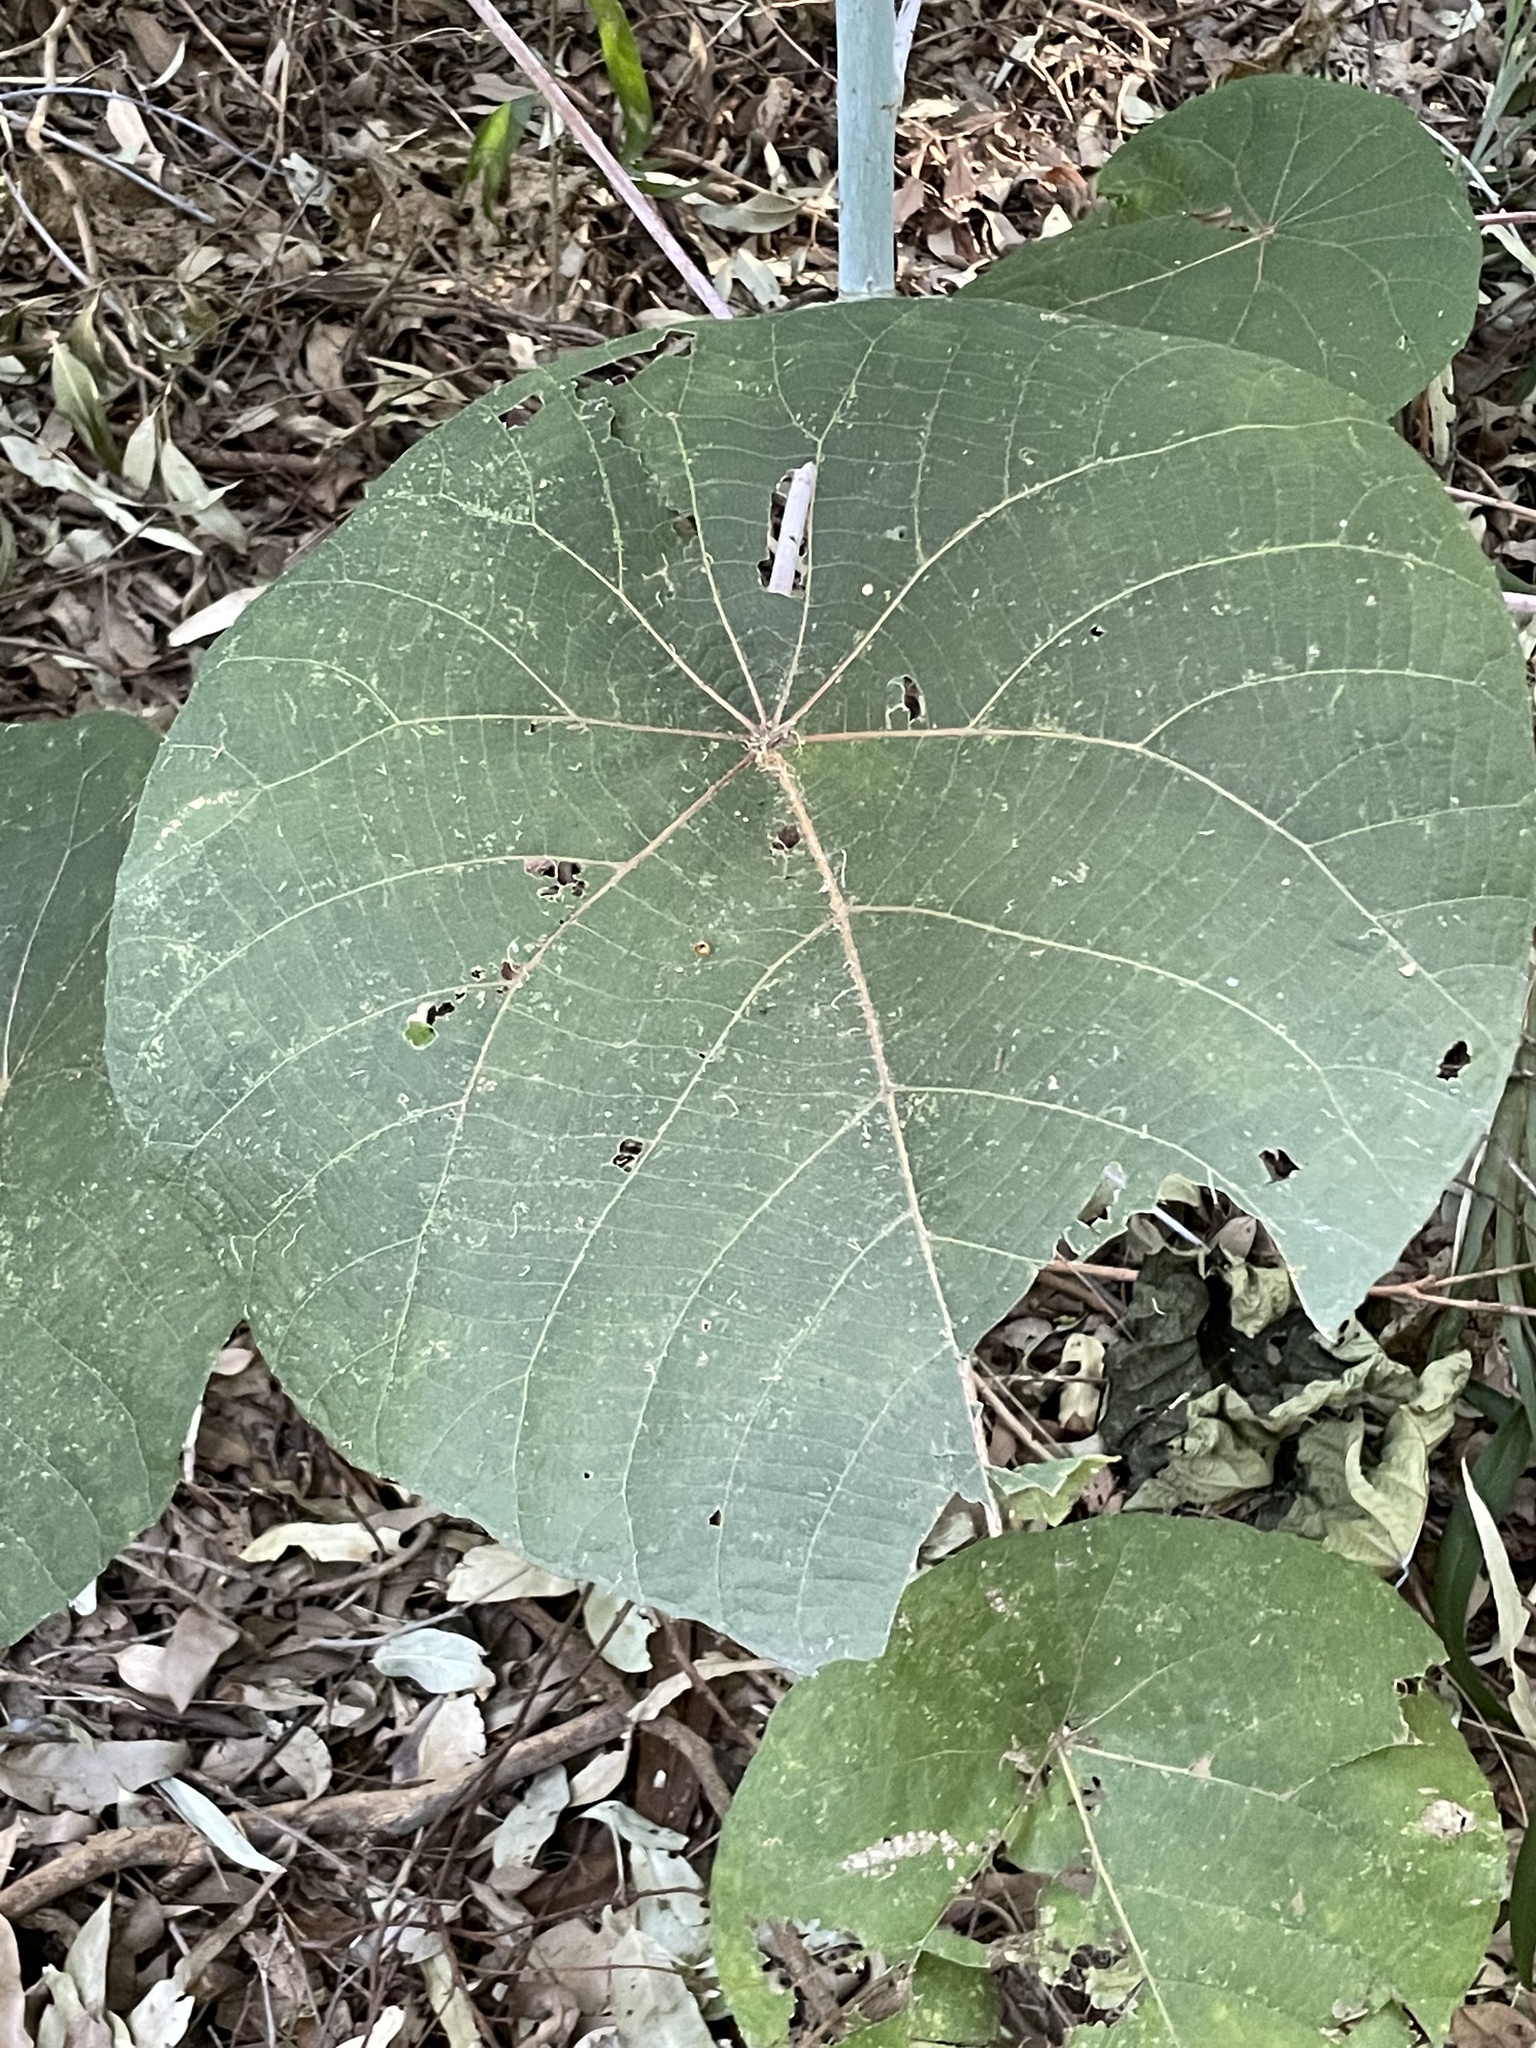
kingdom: Plantae
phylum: Tracheophyta
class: Magnoliopsida
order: Malpighiales
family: Euphorbiaceae
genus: Macaranga
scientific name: Macaranga tanarius
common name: Parasol leaf tree
